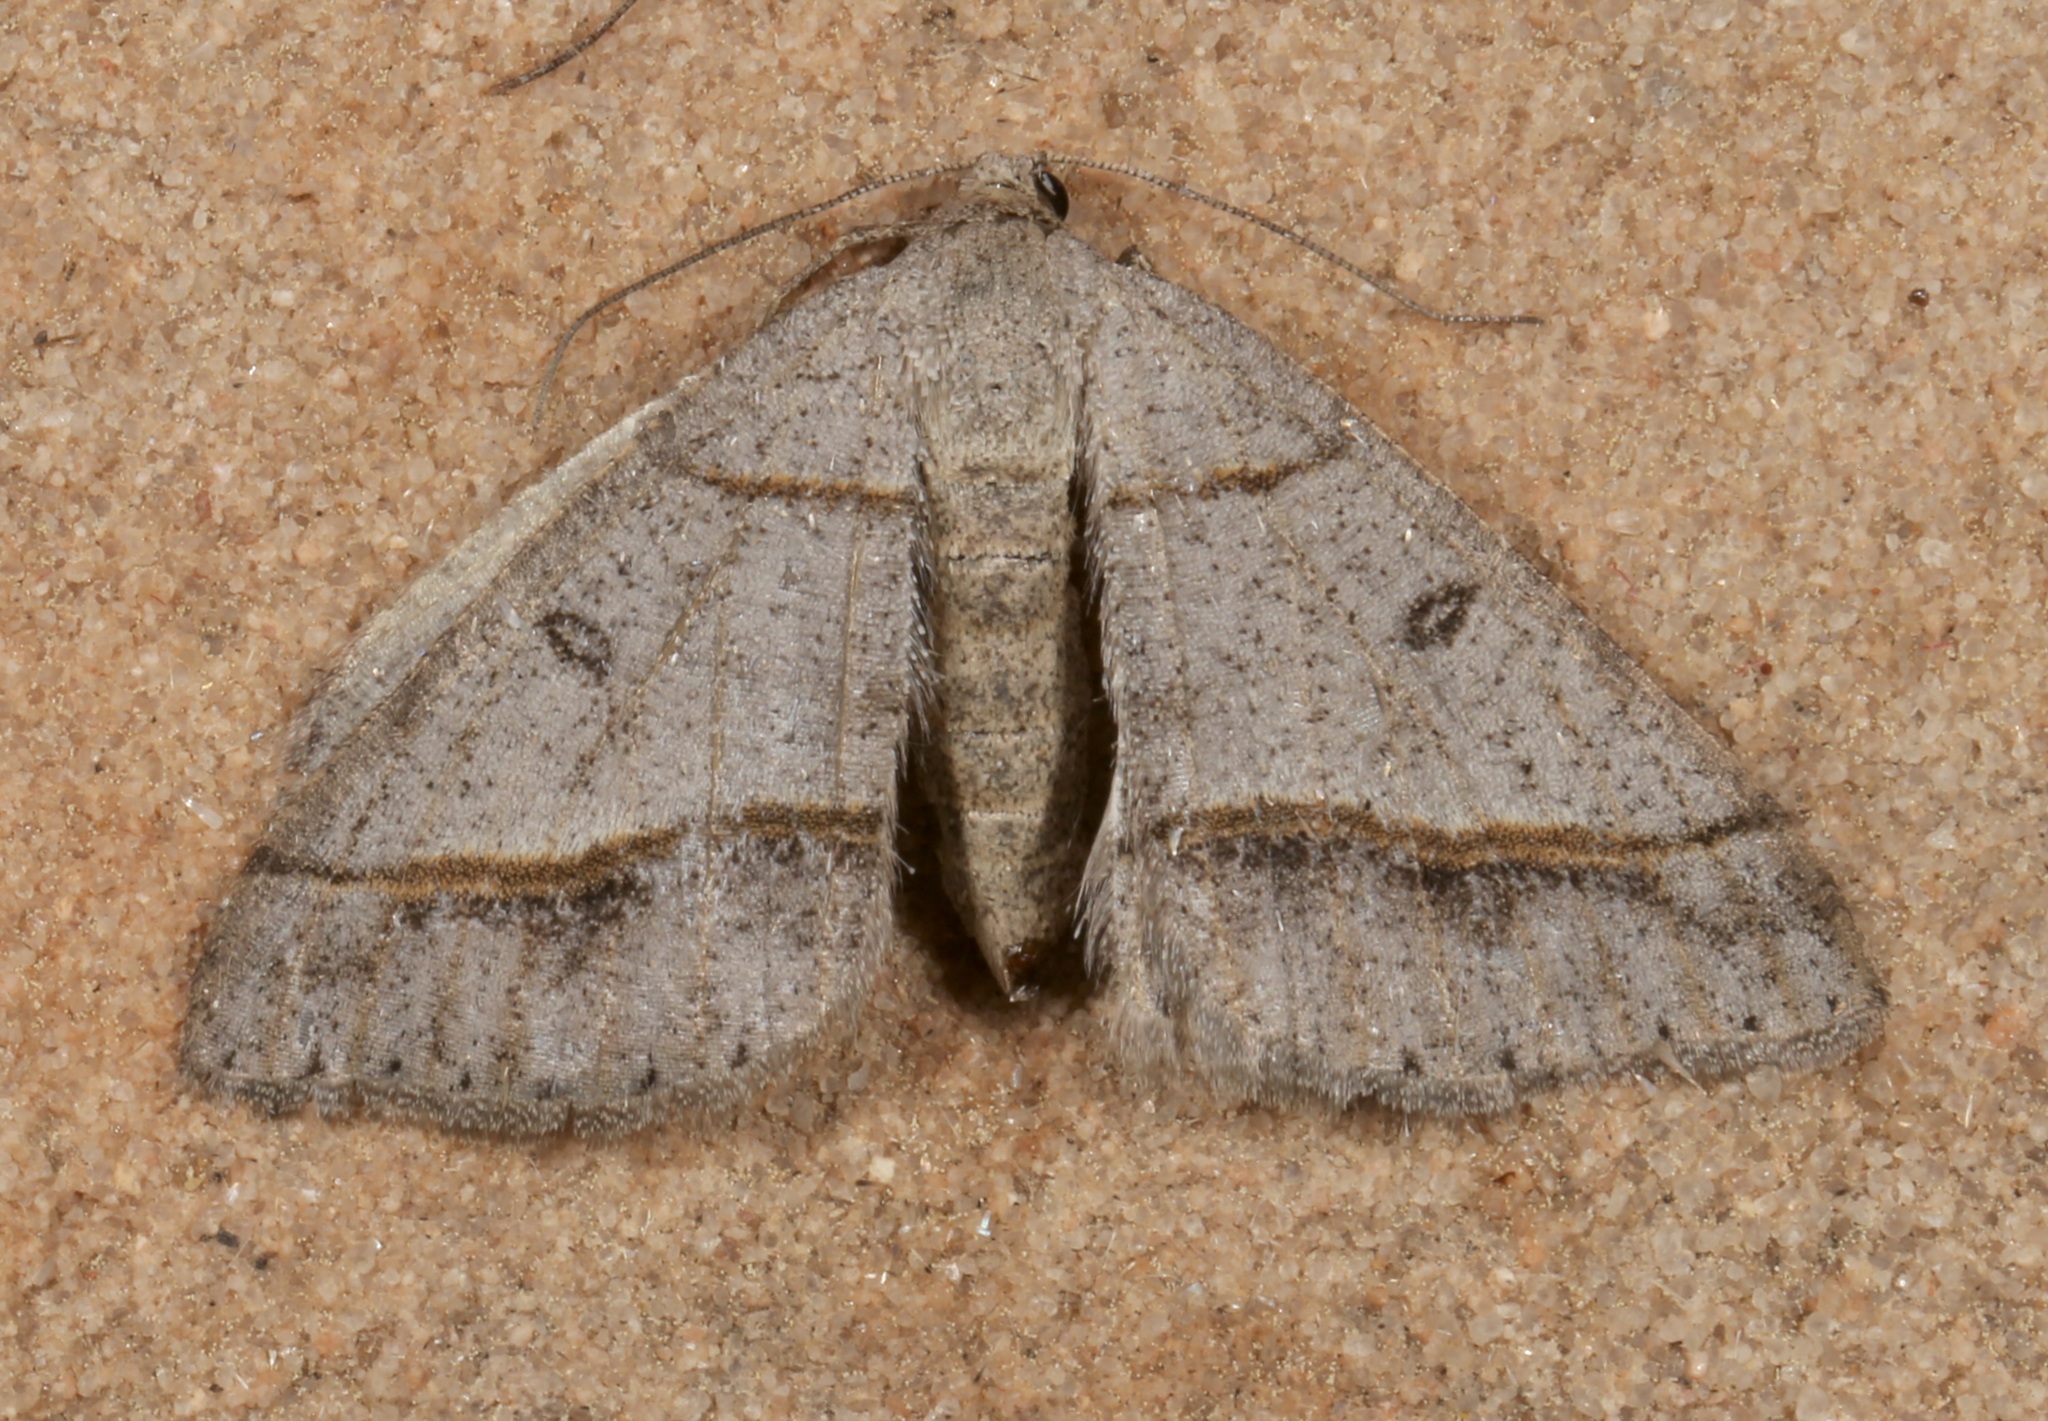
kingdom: Animalia
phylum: Arthropoda
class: Insecta
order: Lepidoptera
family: Geometridae
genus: Digrammia
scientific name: Digrammia neptaria
